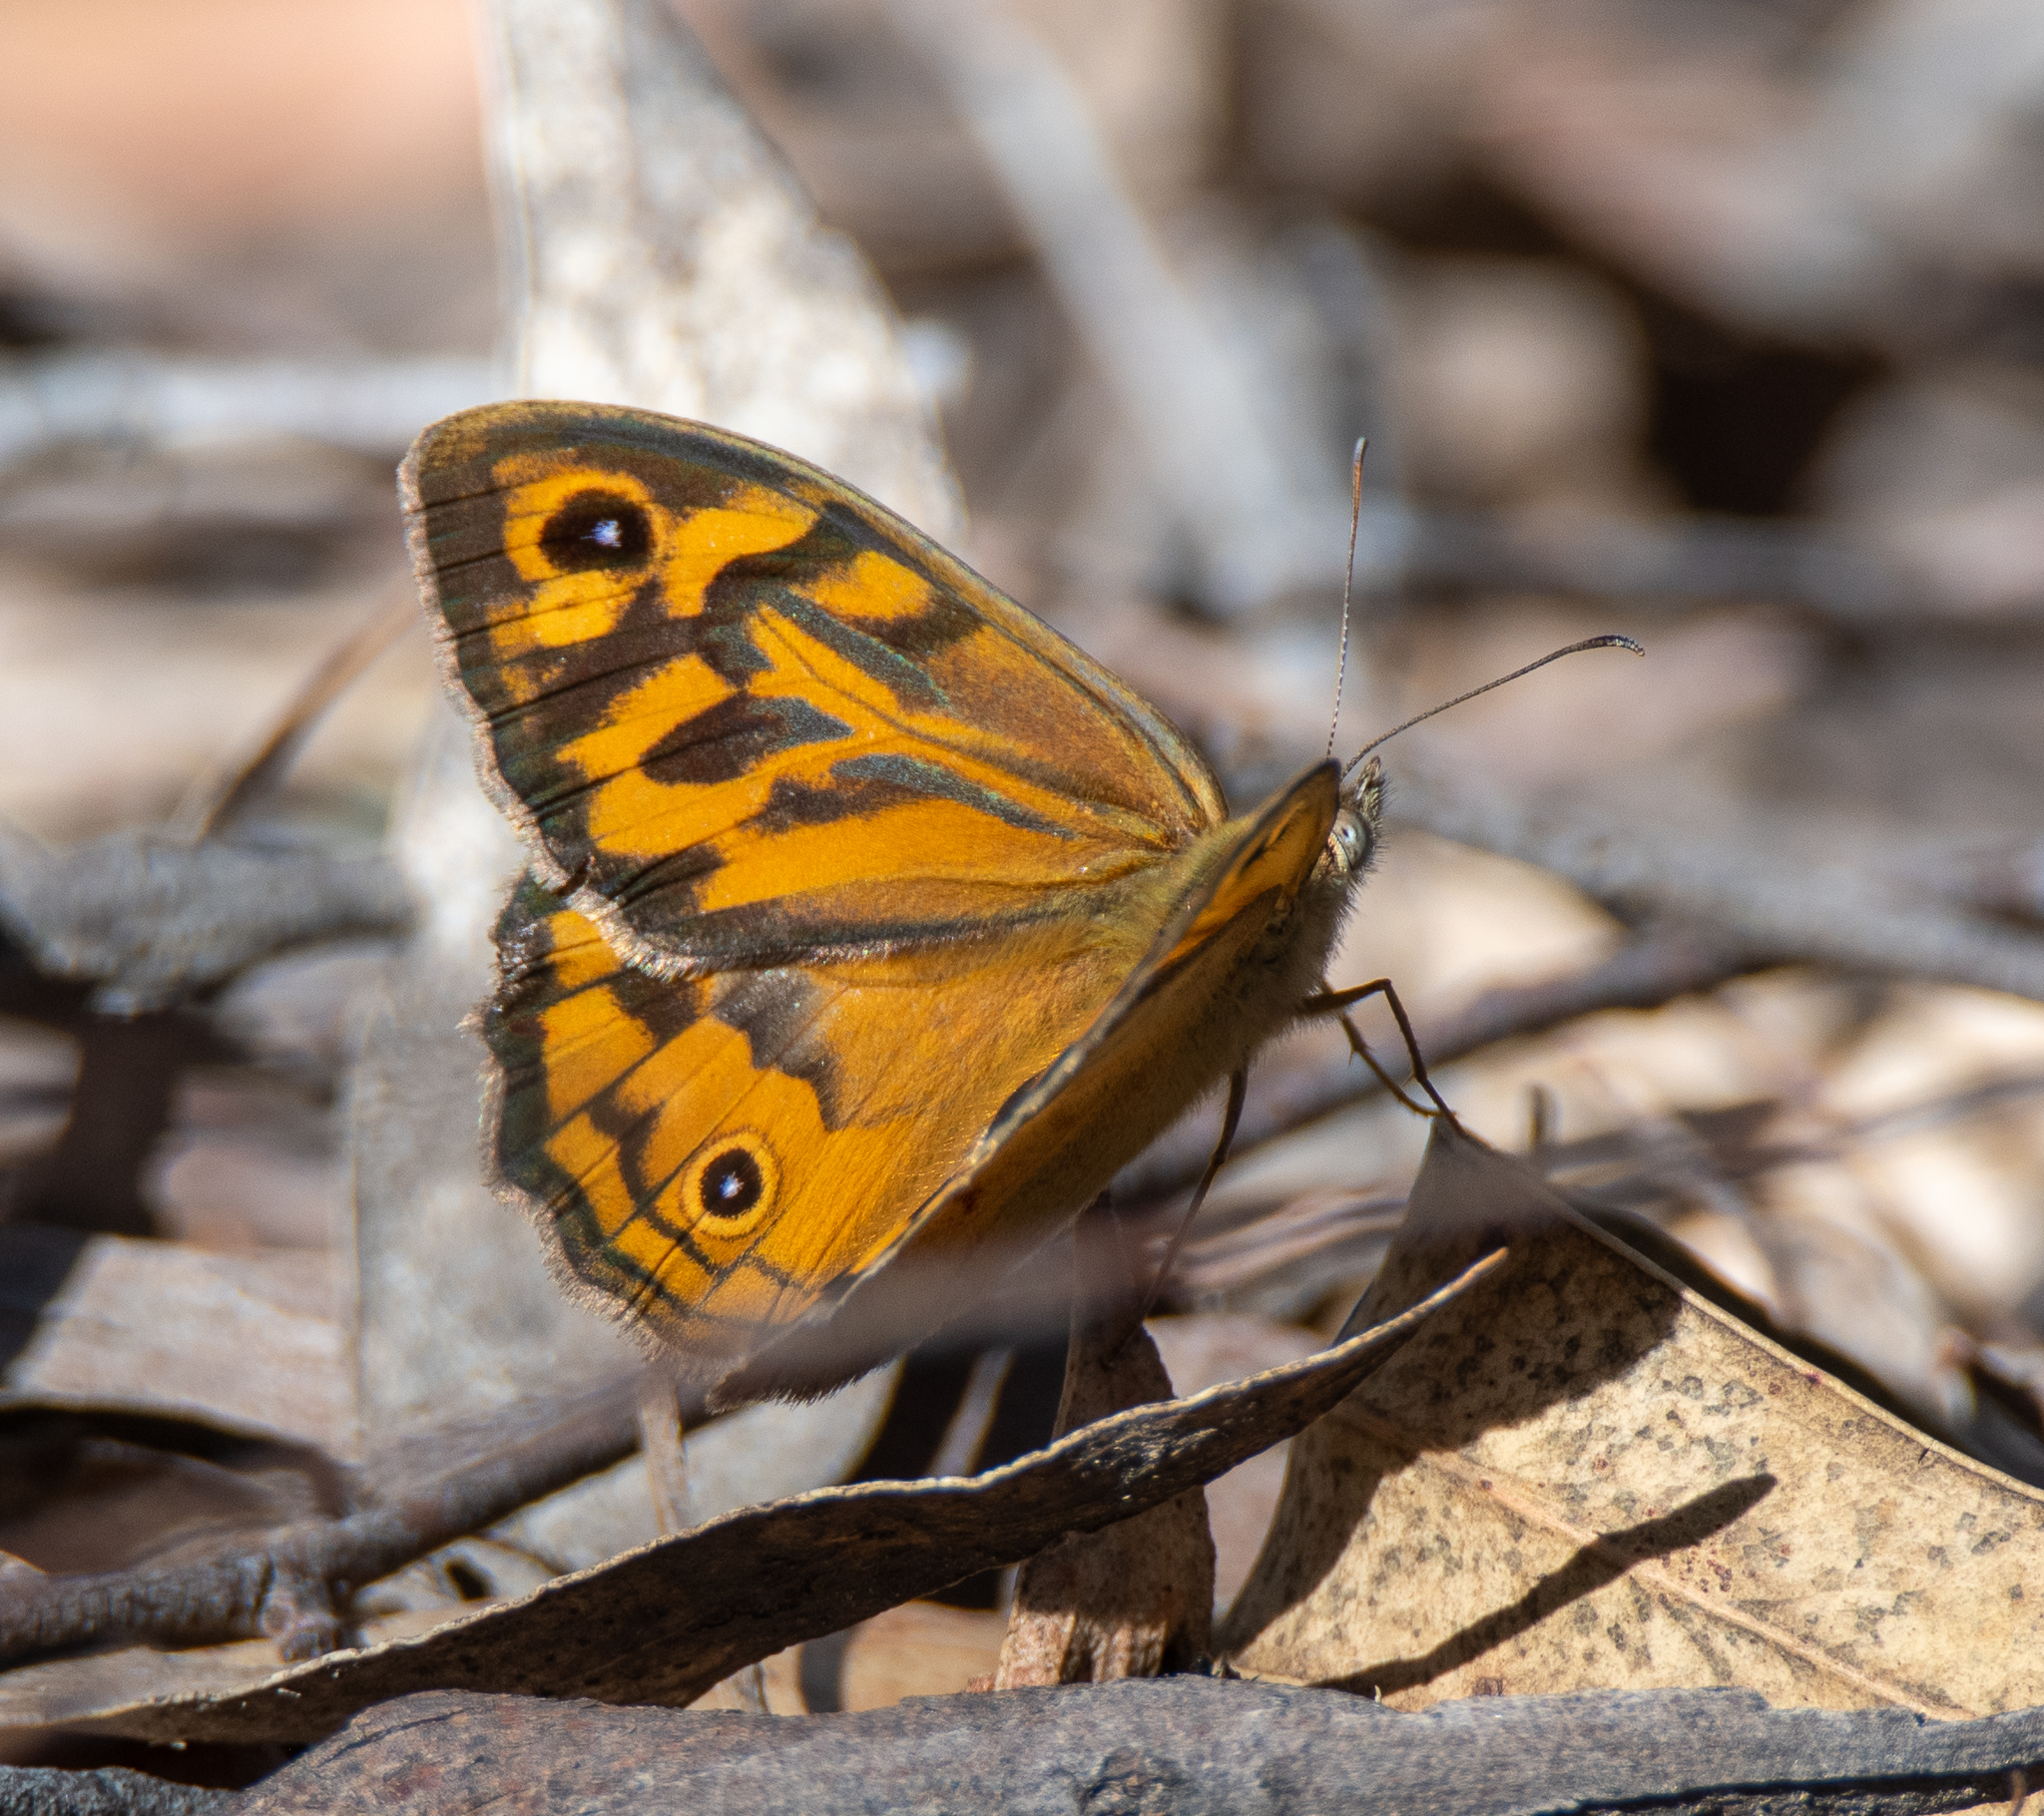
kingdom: Animalia
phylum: Arthropoda
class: Insecta
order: Lepidoptera
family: Nymphalidae
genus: Heteronympha
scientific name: Heteronympha merope
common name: Common brown
